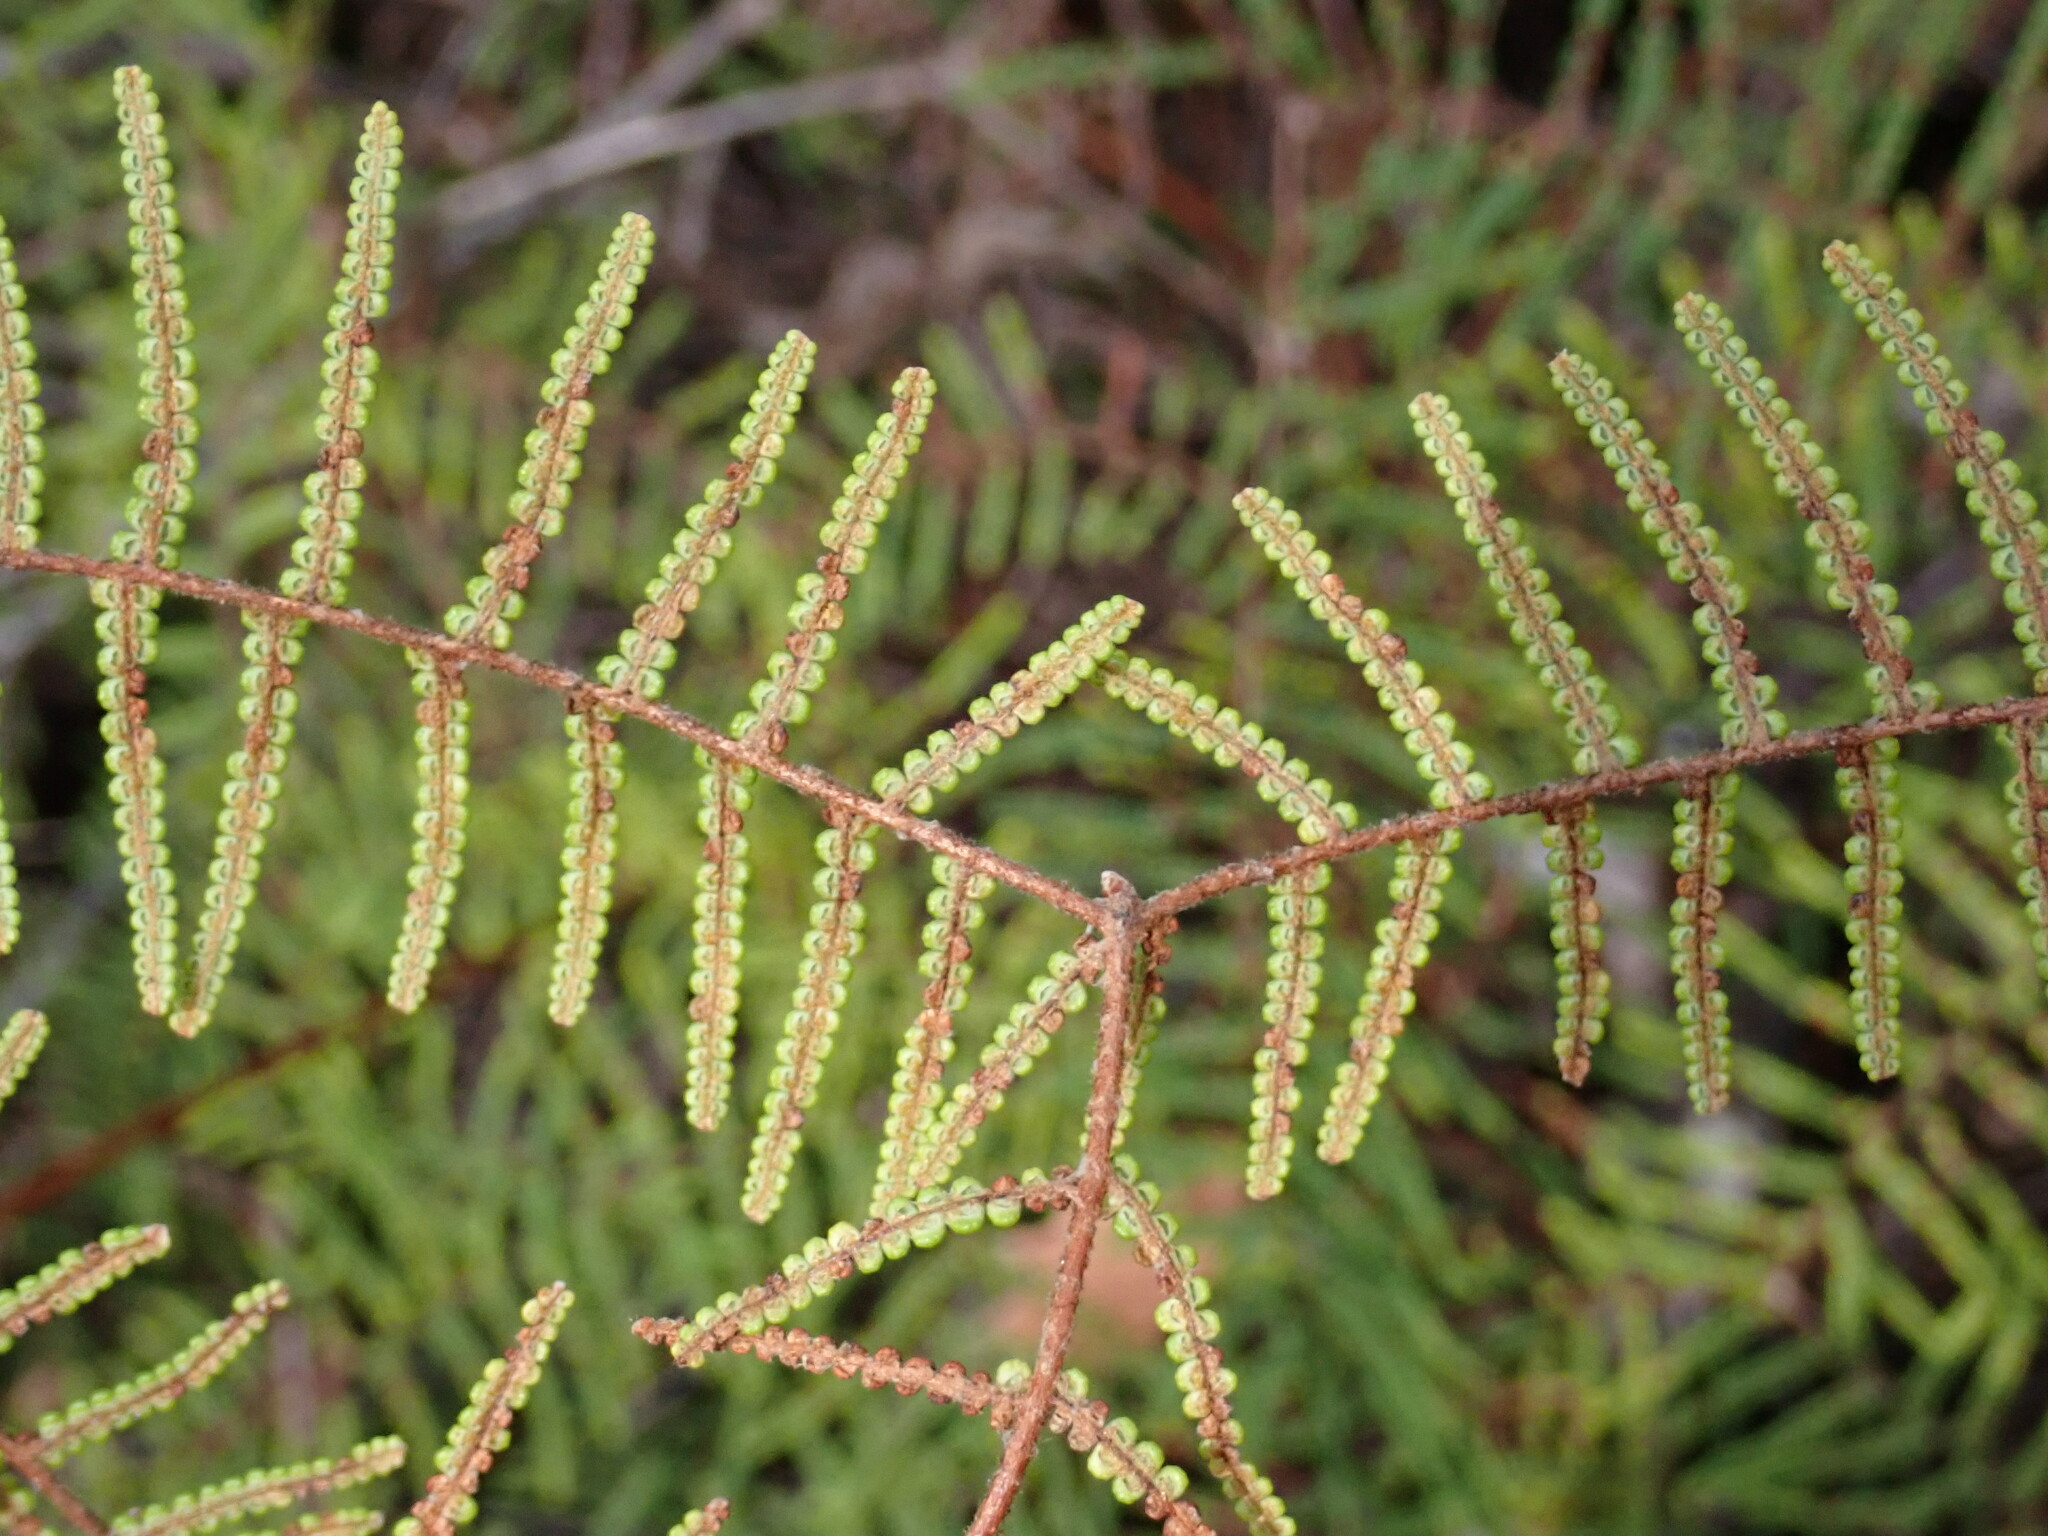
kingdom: Plantae
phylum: Tracheophyta
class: Polypodiopsida
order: Gleicheniales
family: Gleicheniaceae
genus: Gleichenia
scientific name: Gleichenia dicarpa
